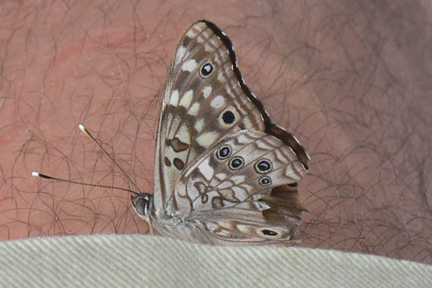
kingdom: Animalia
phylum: Arthropoda
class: Insecta
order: Lepidoptera
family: Nymphalidae
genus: Asterocampa
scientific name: Asterocampa celtis
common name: Hackberry emperor
